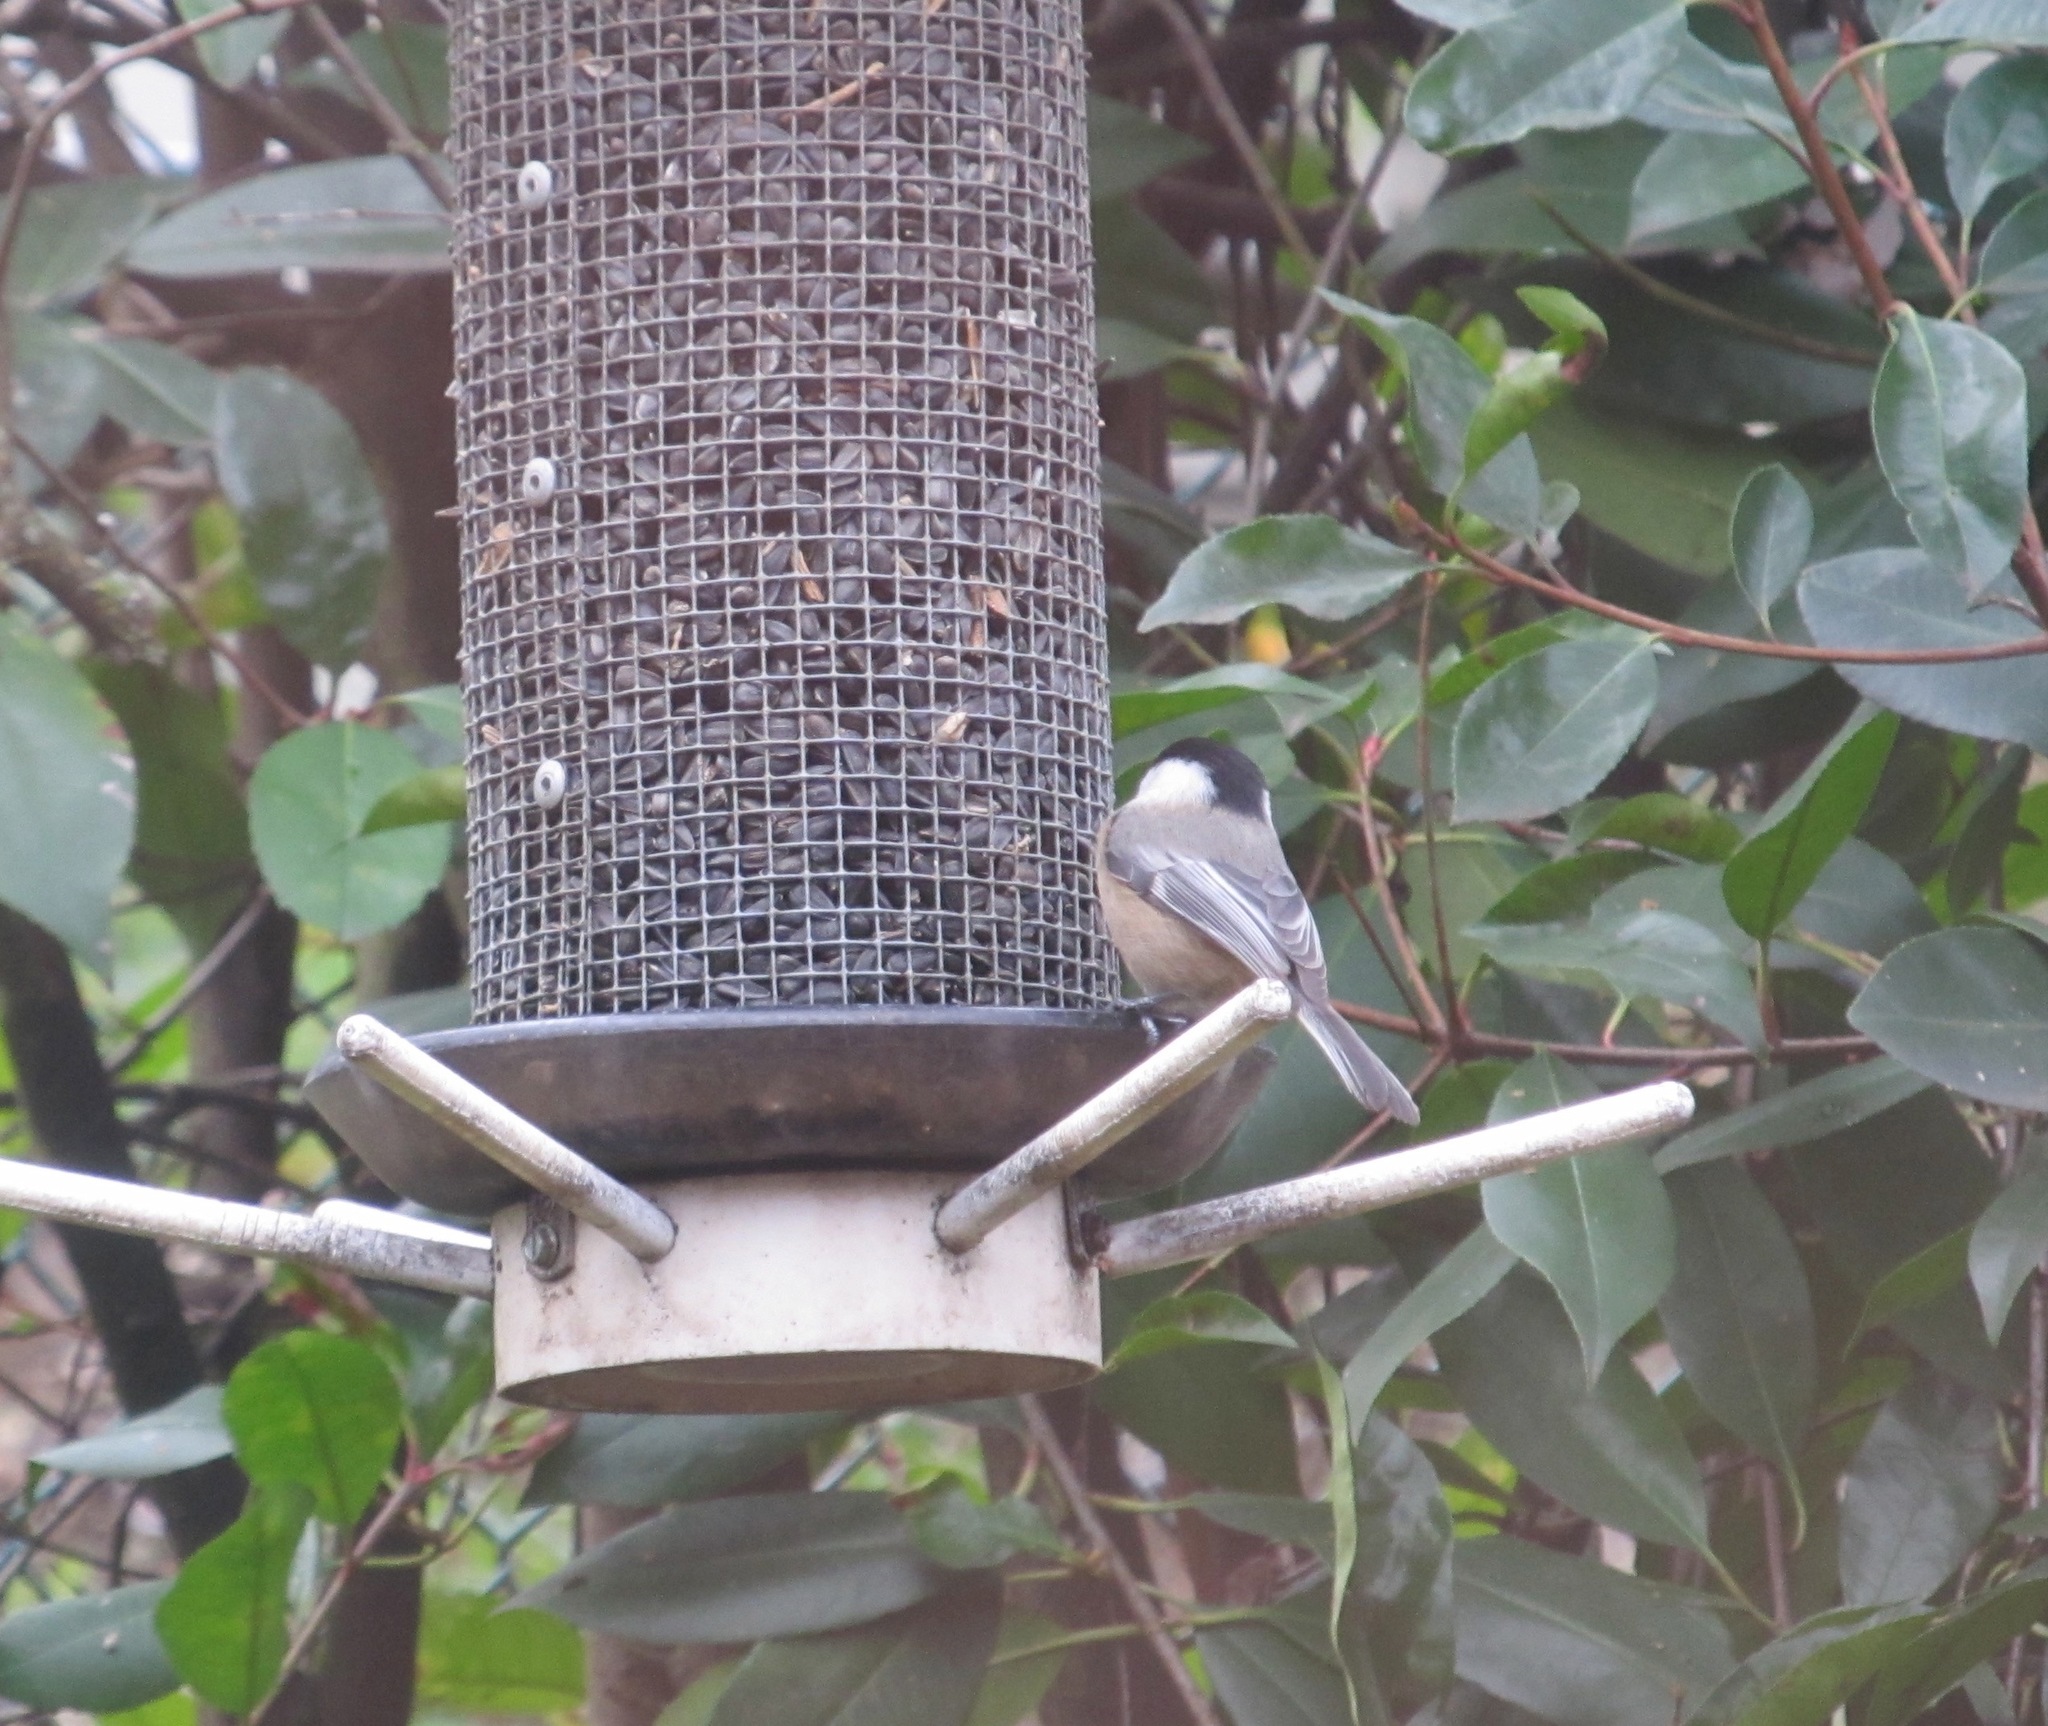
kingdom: Animalia
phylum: Chordata
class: Aves
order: Passeriformes
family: Paridae
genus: Poecile
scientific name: Poecile atricapillus
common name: Black-capped chickadee
